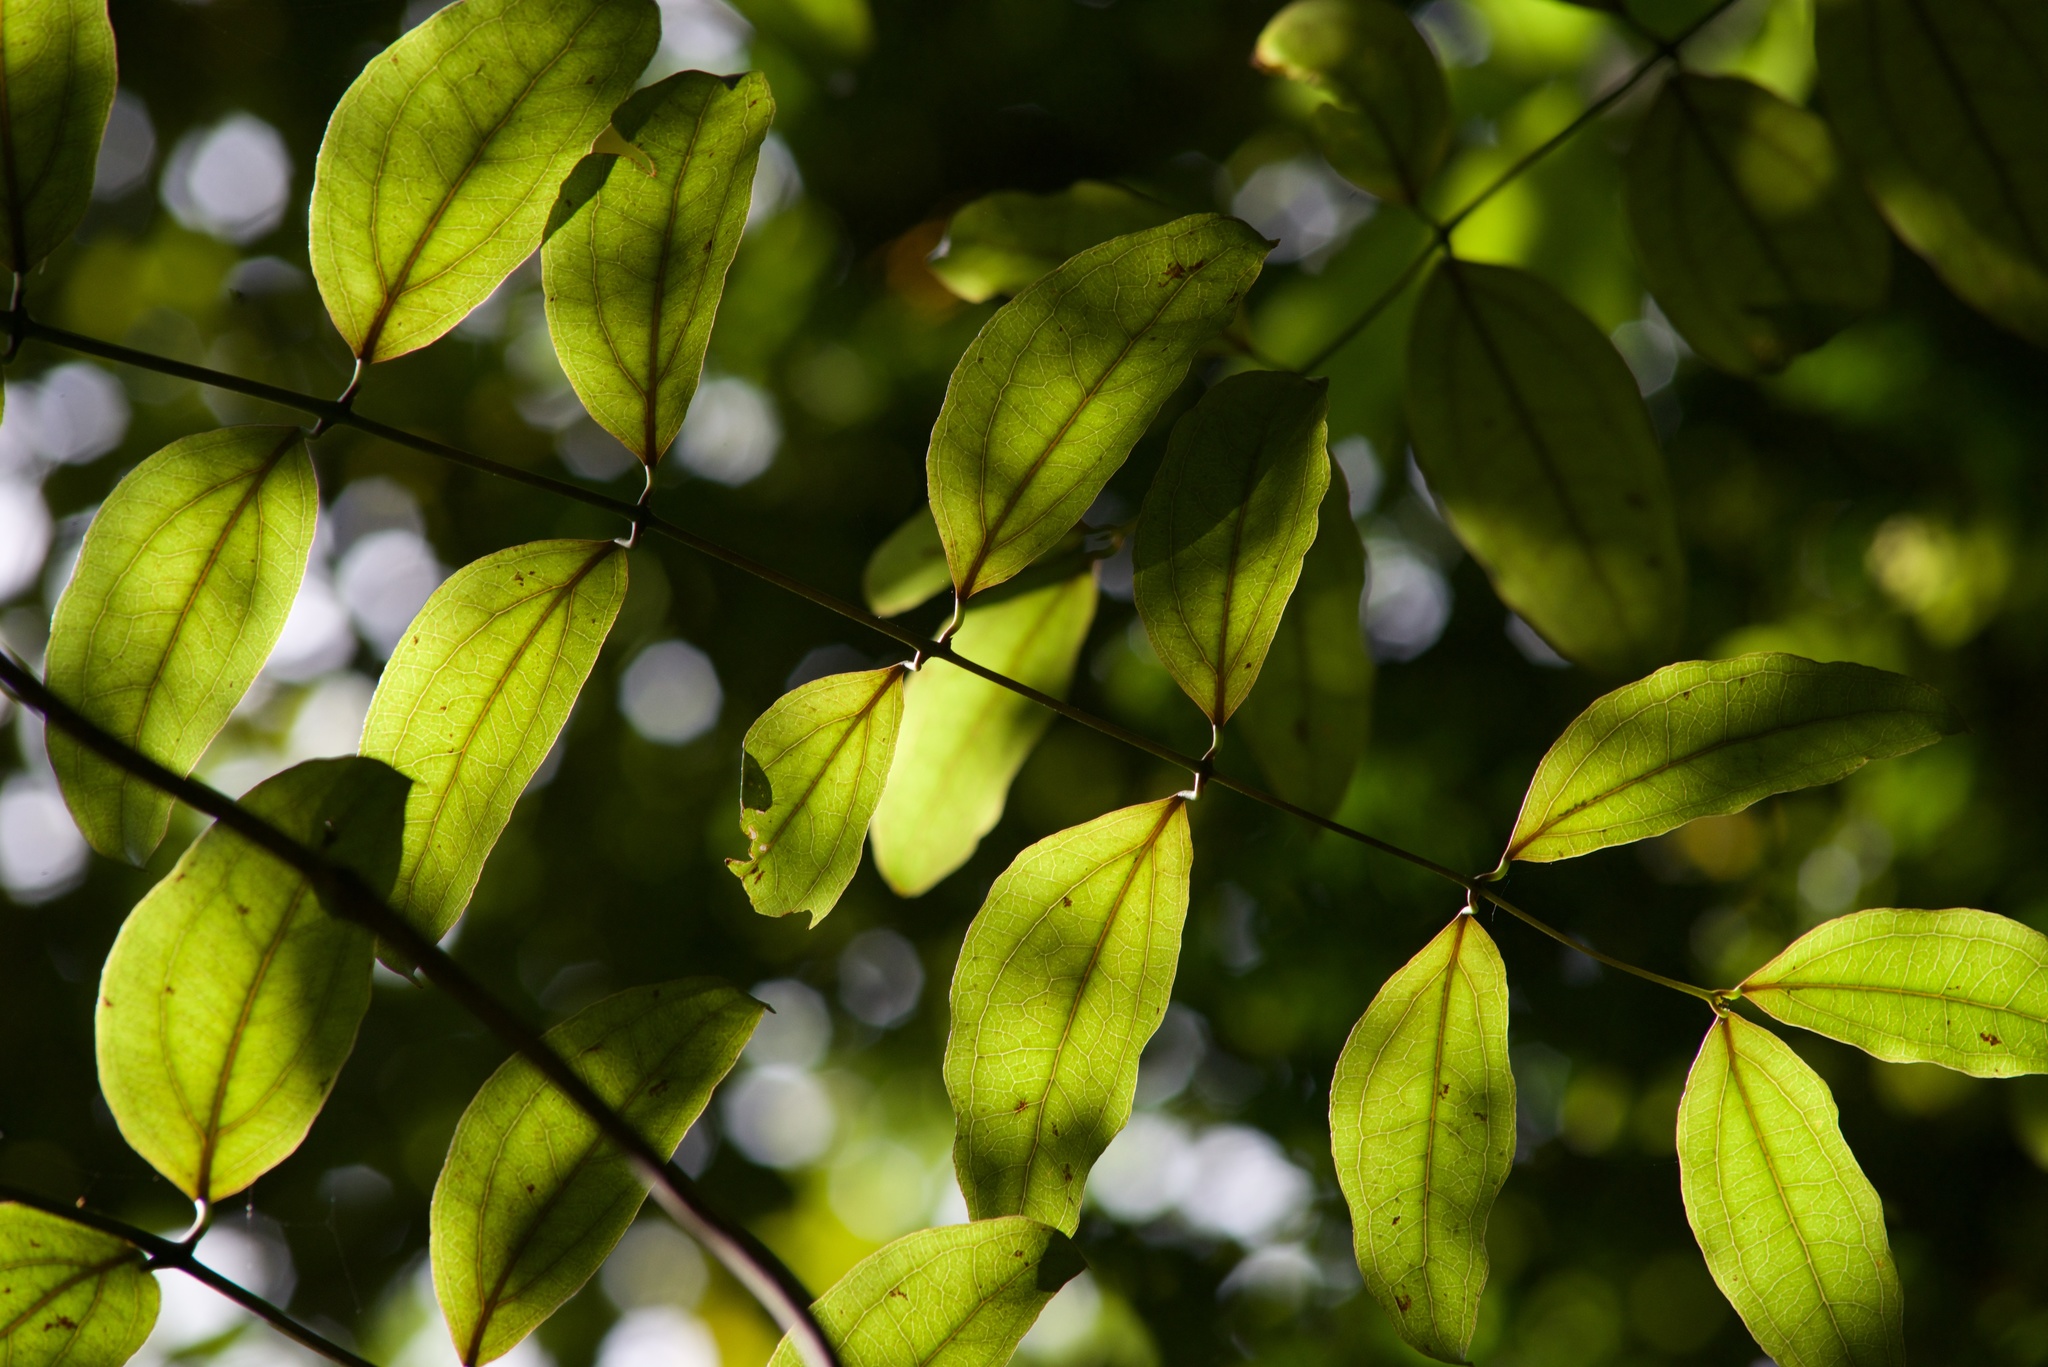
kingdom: Plantae
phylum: Tracheophyta
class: Liliopsida
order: Liliales
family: Ripogonaceae
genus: Ripogonum
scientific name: Ripogonum scandens
